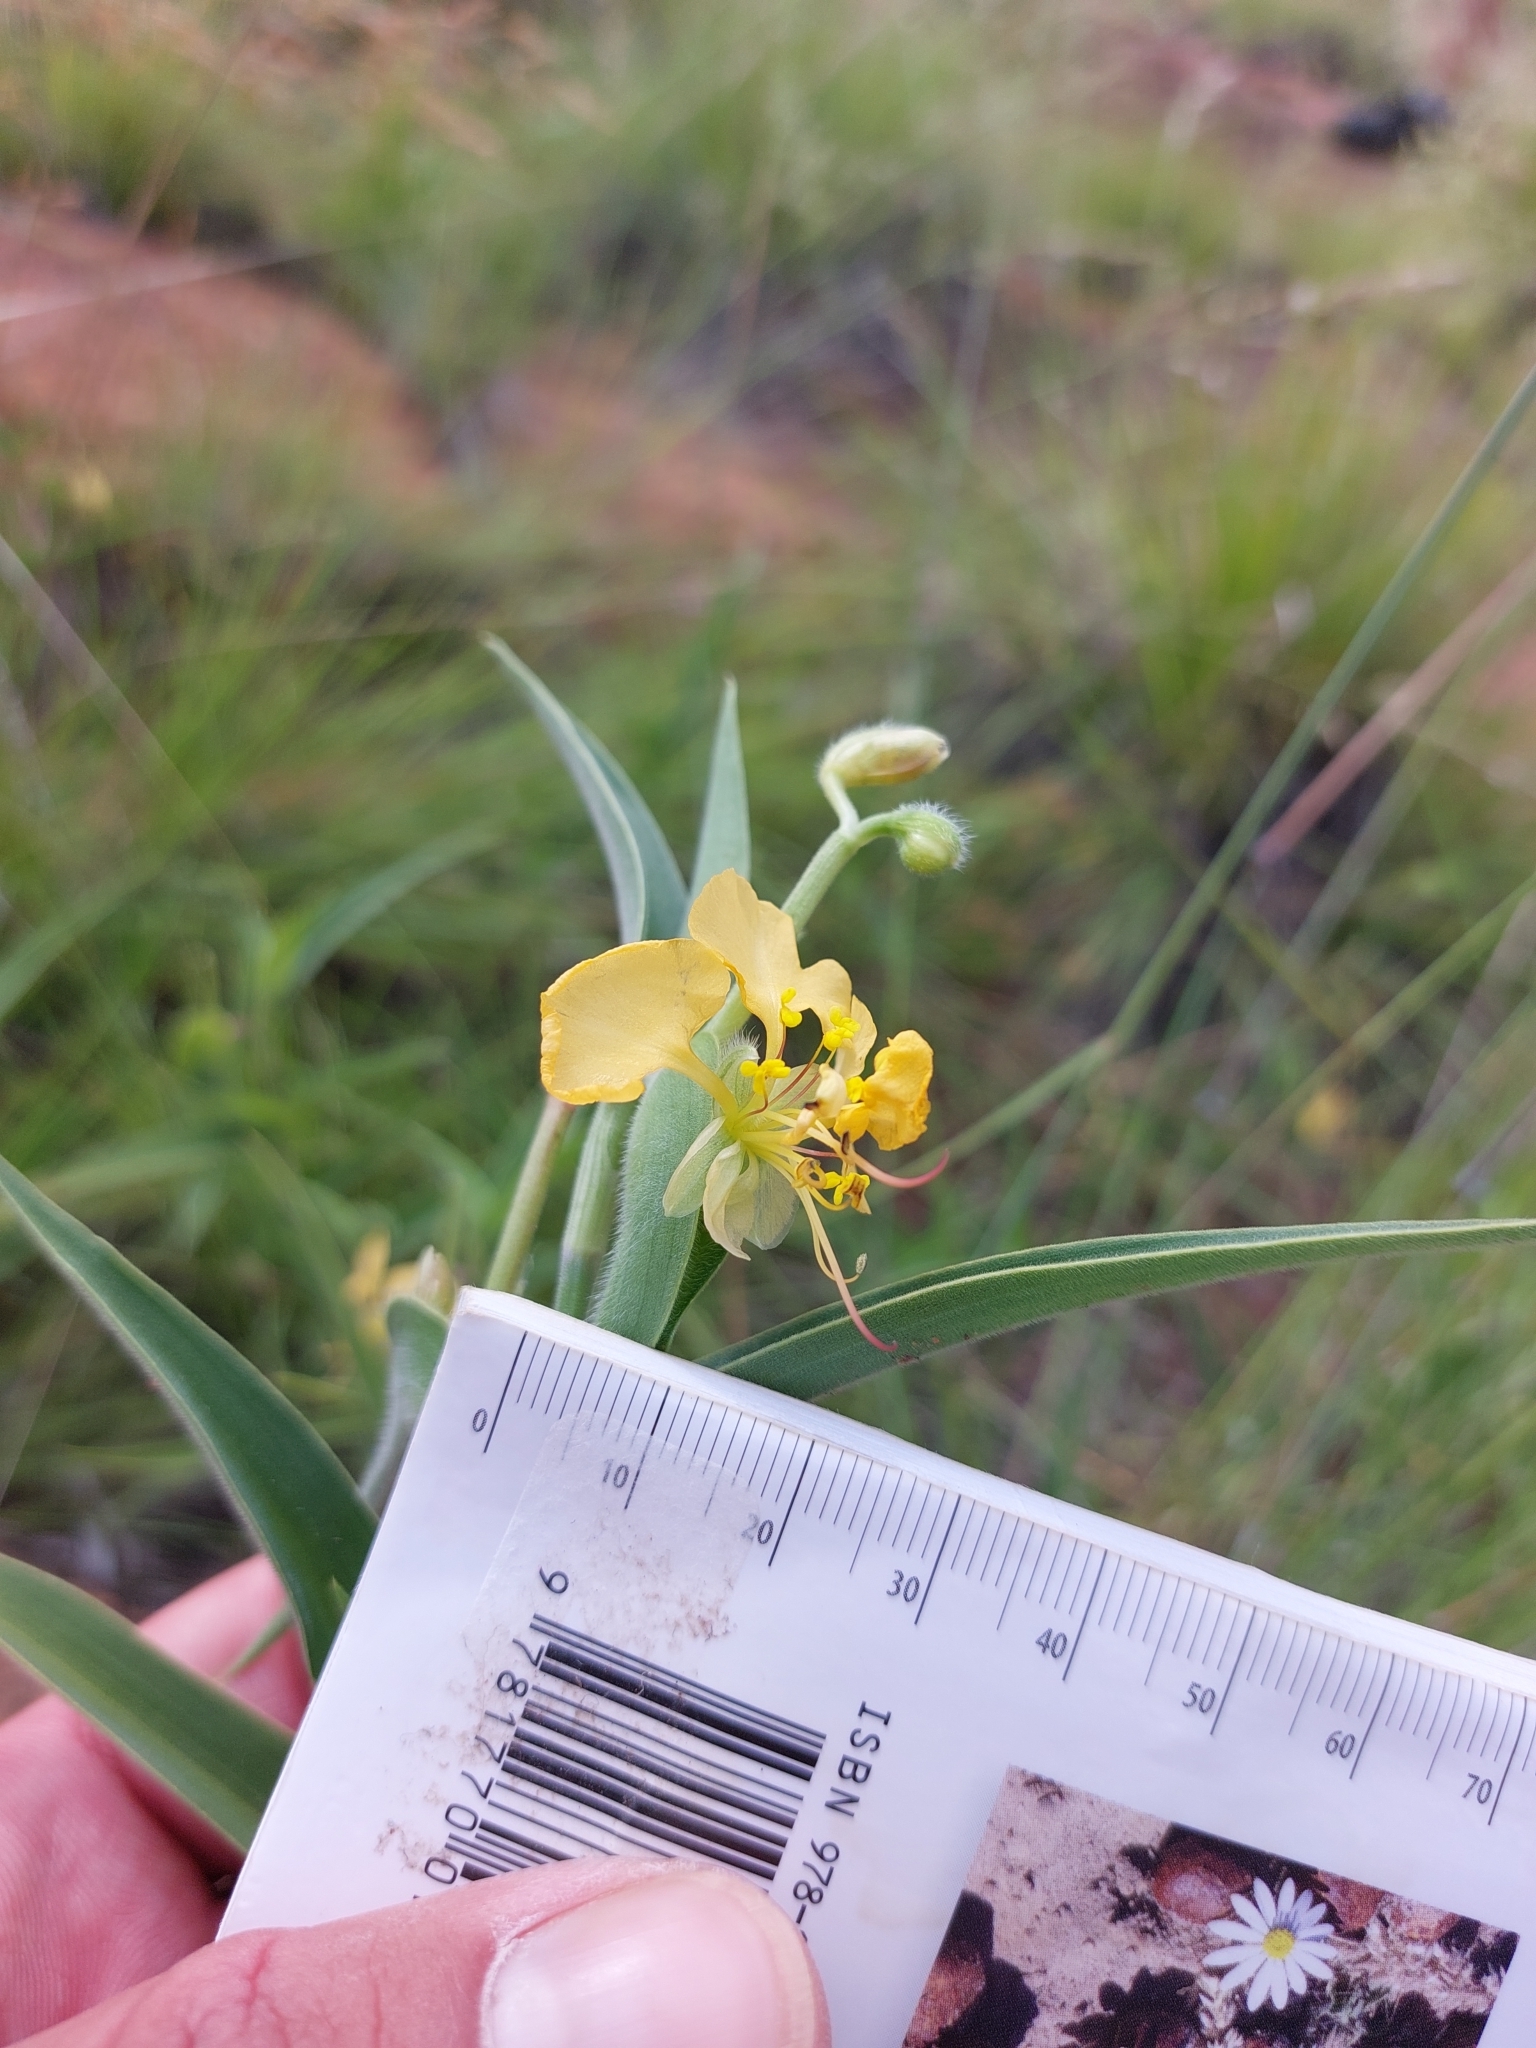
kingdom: Plantae
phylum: Tracheophyta
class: Liliopsida
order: Commelinales
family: Commelinaceae
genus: Commelina
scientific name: Commelina africana
